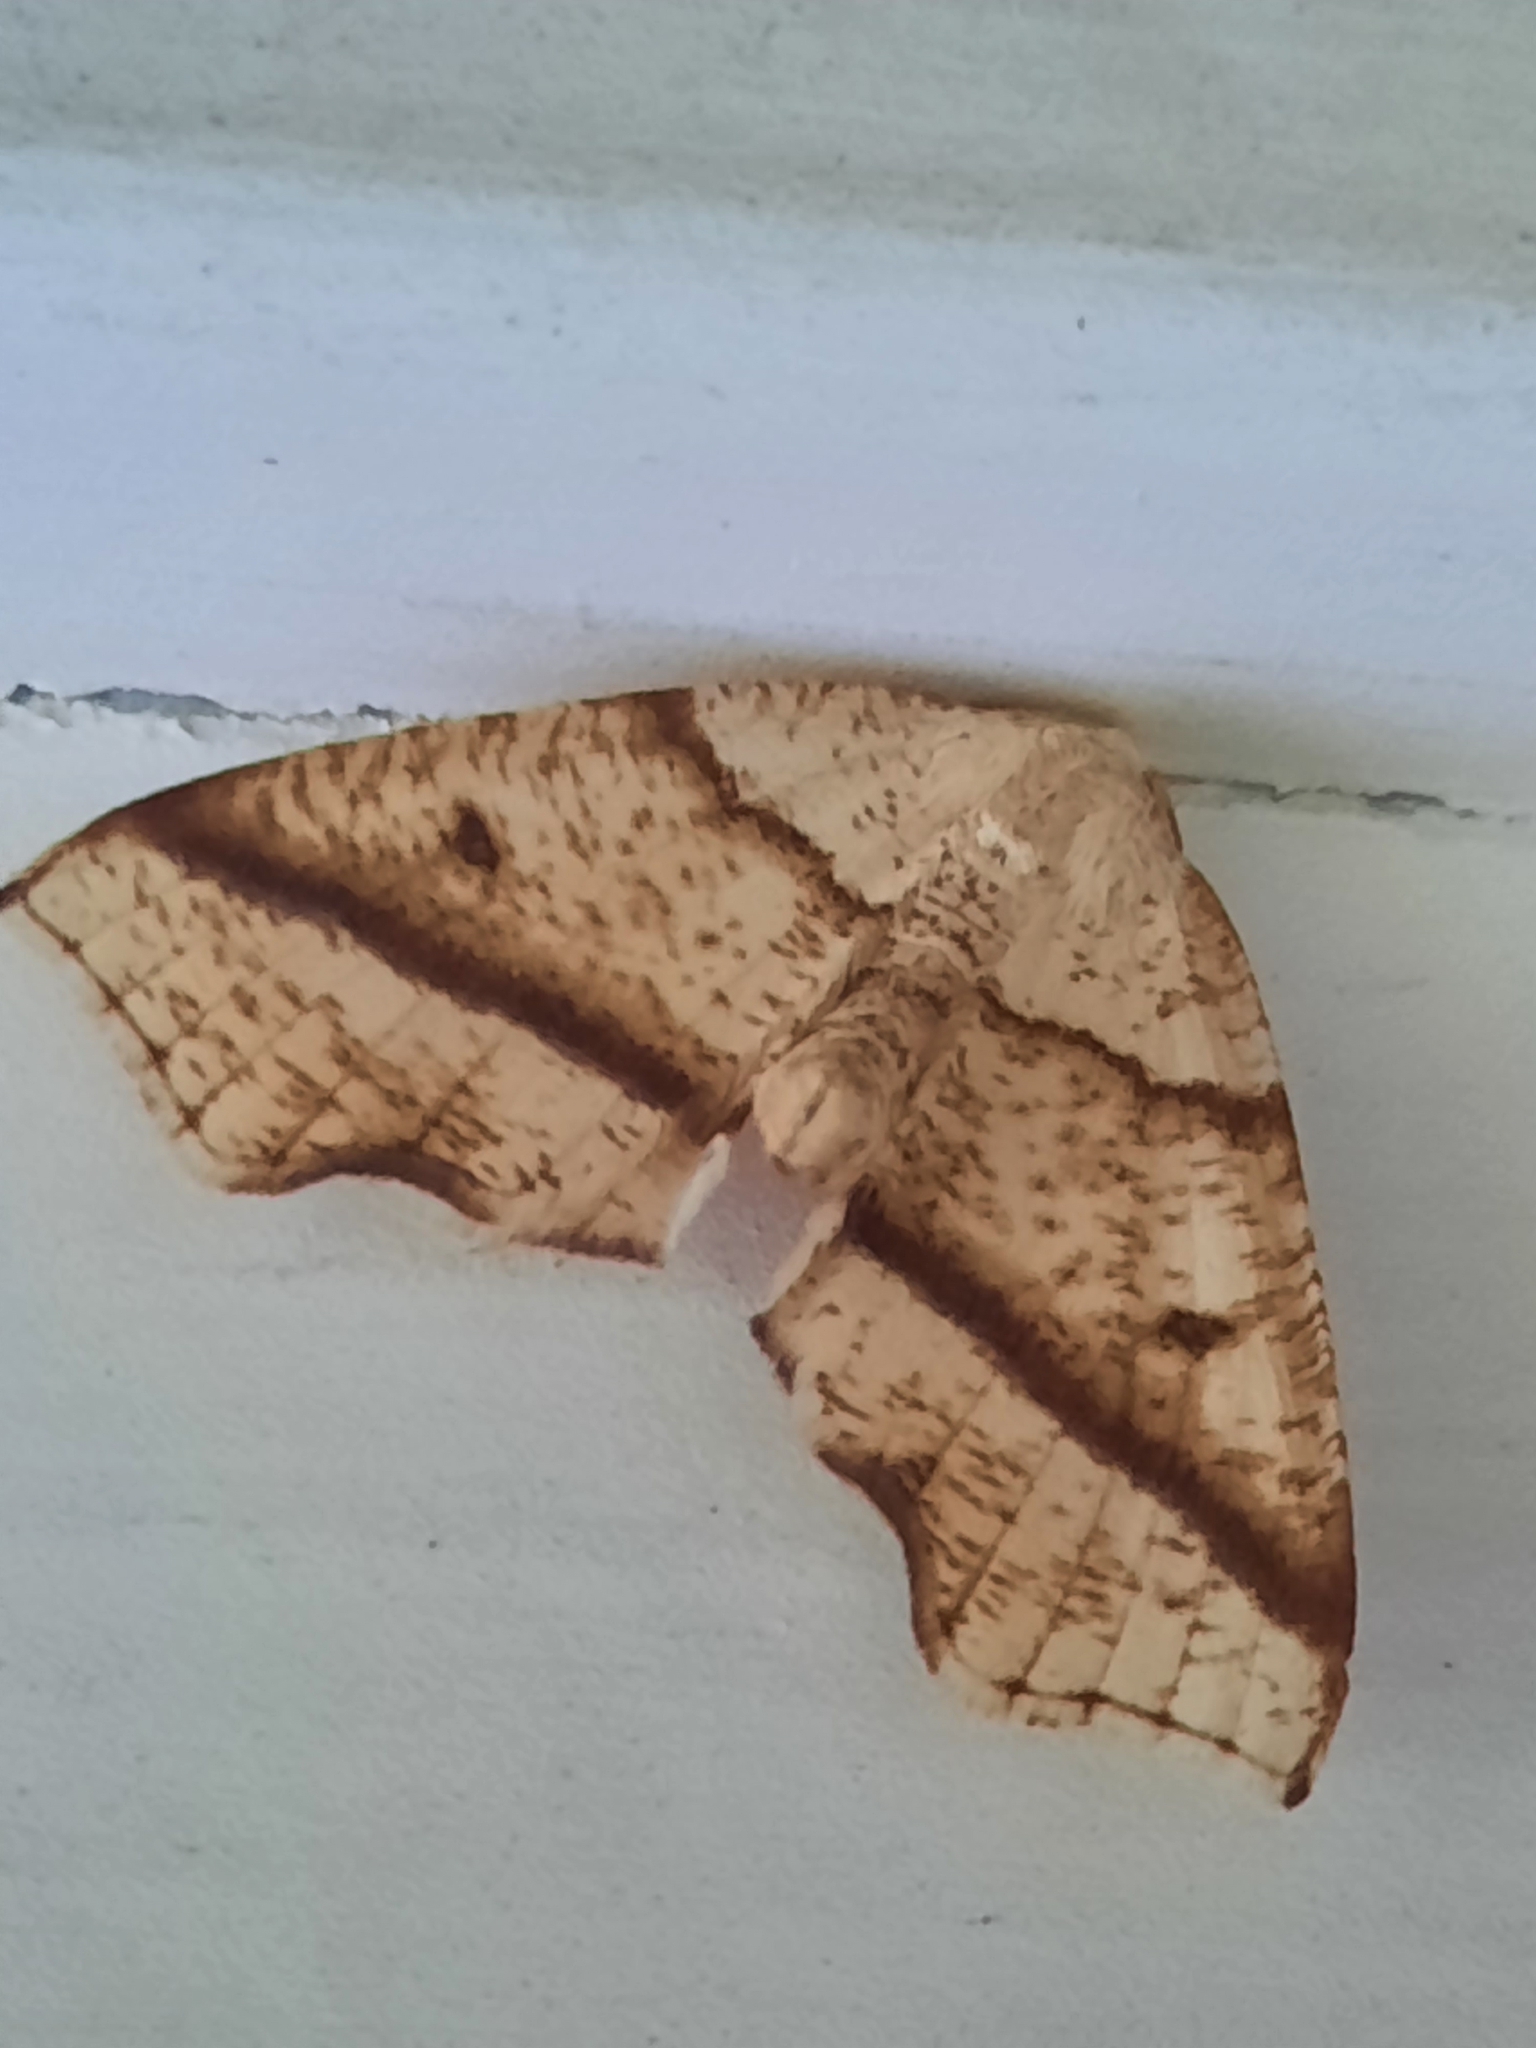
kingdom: Animalia
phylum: Arthropoda
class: Insecta
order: Lepidoptera
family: Geometridae
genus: Plagodis
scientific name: Plagodis alcoolaria
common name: Hollow-spotted plagodis
